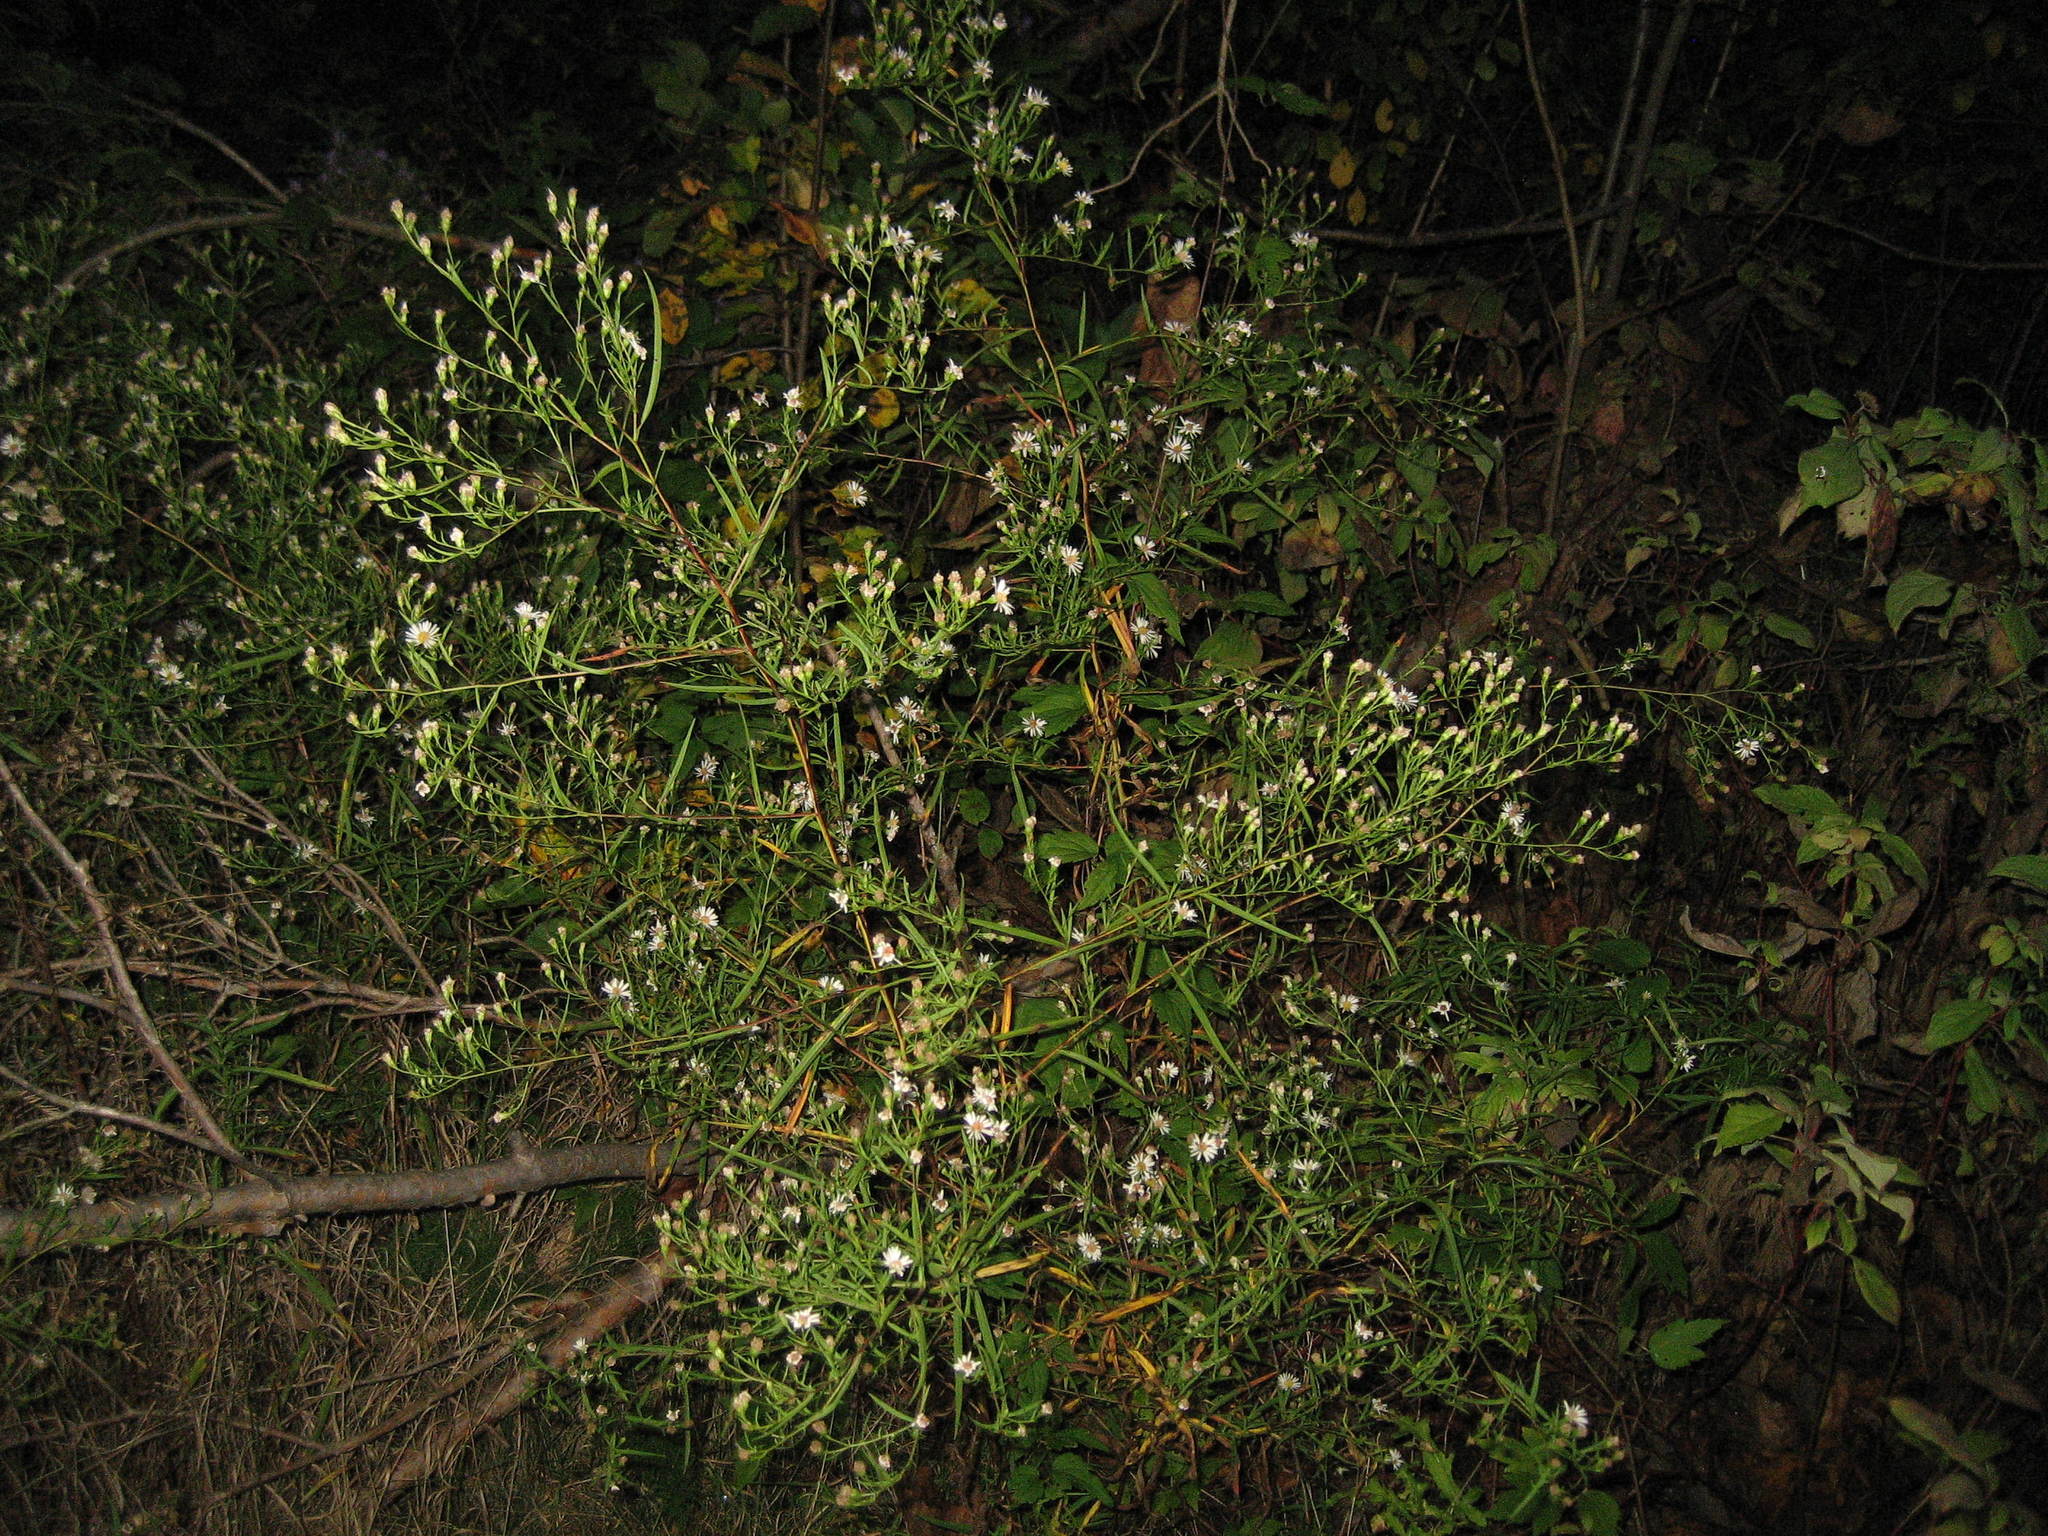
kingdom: Plantae
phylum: Tracheophyta
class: Magnoliopsida
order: Asterales
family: Asteraceae
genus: Symphyotrichum
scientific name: Symphyotrichum lanceolatum
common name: Panicled aster
